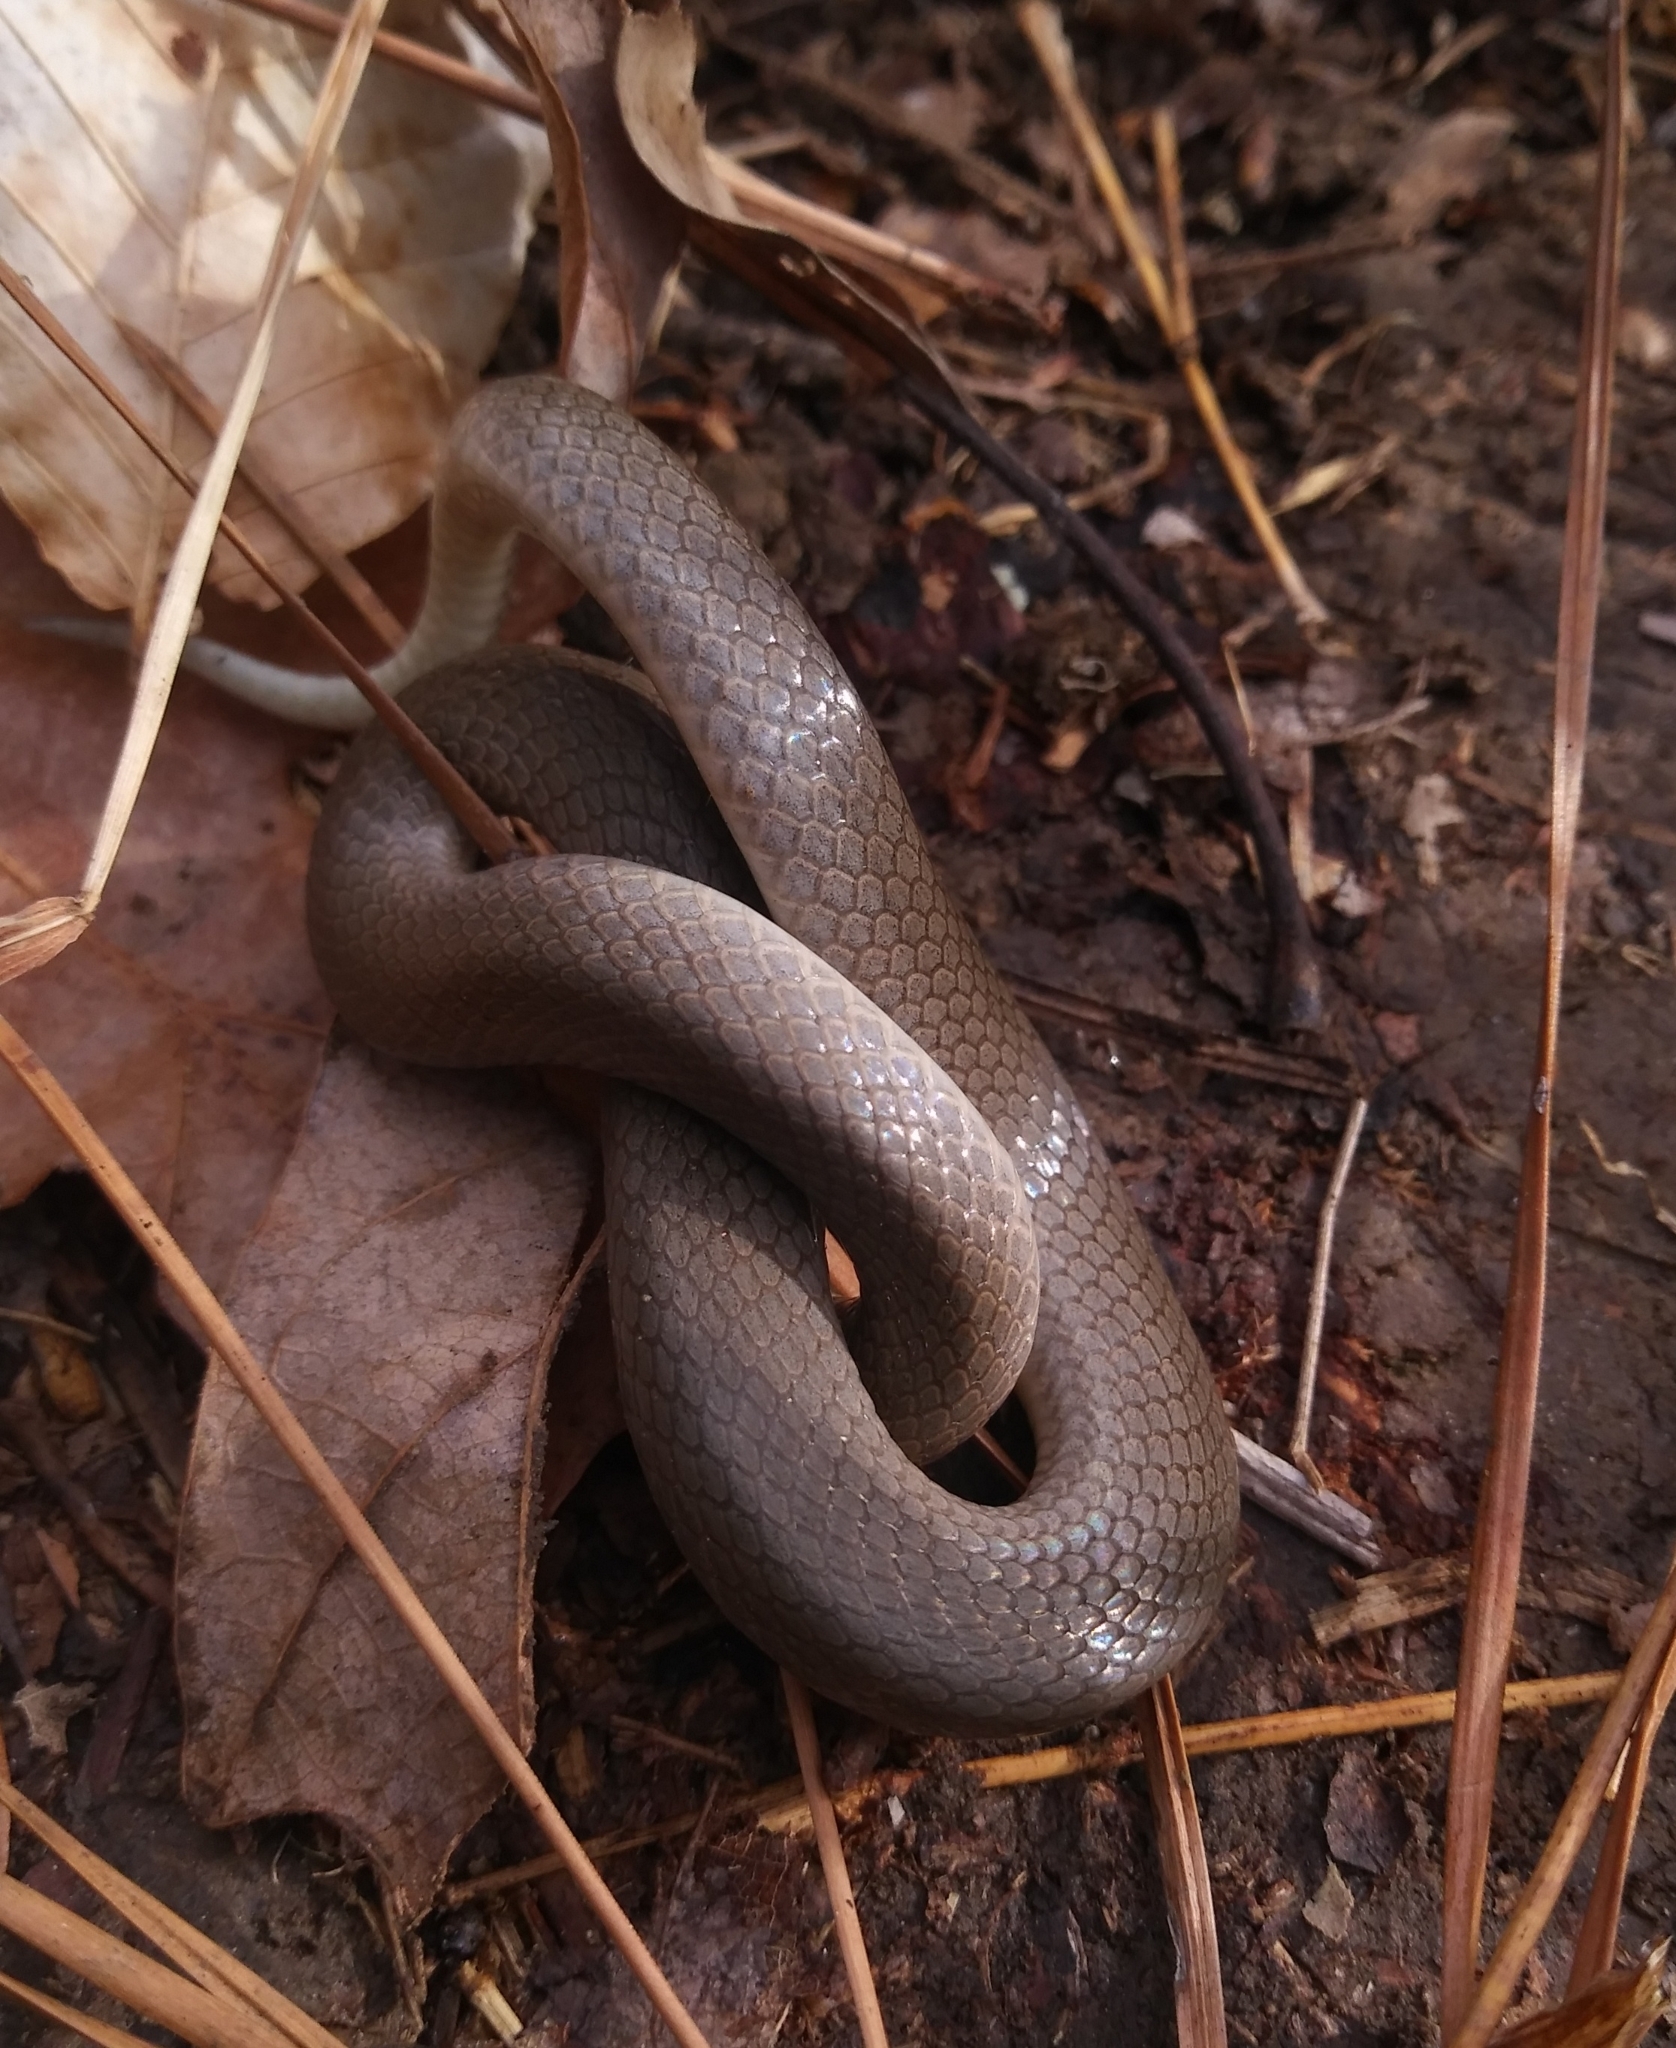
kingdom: Animalia
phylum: Chordata
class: Squamata
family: Colubridae
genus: Virginia
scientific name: Virginia valeriae
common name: Smooth earth snake
